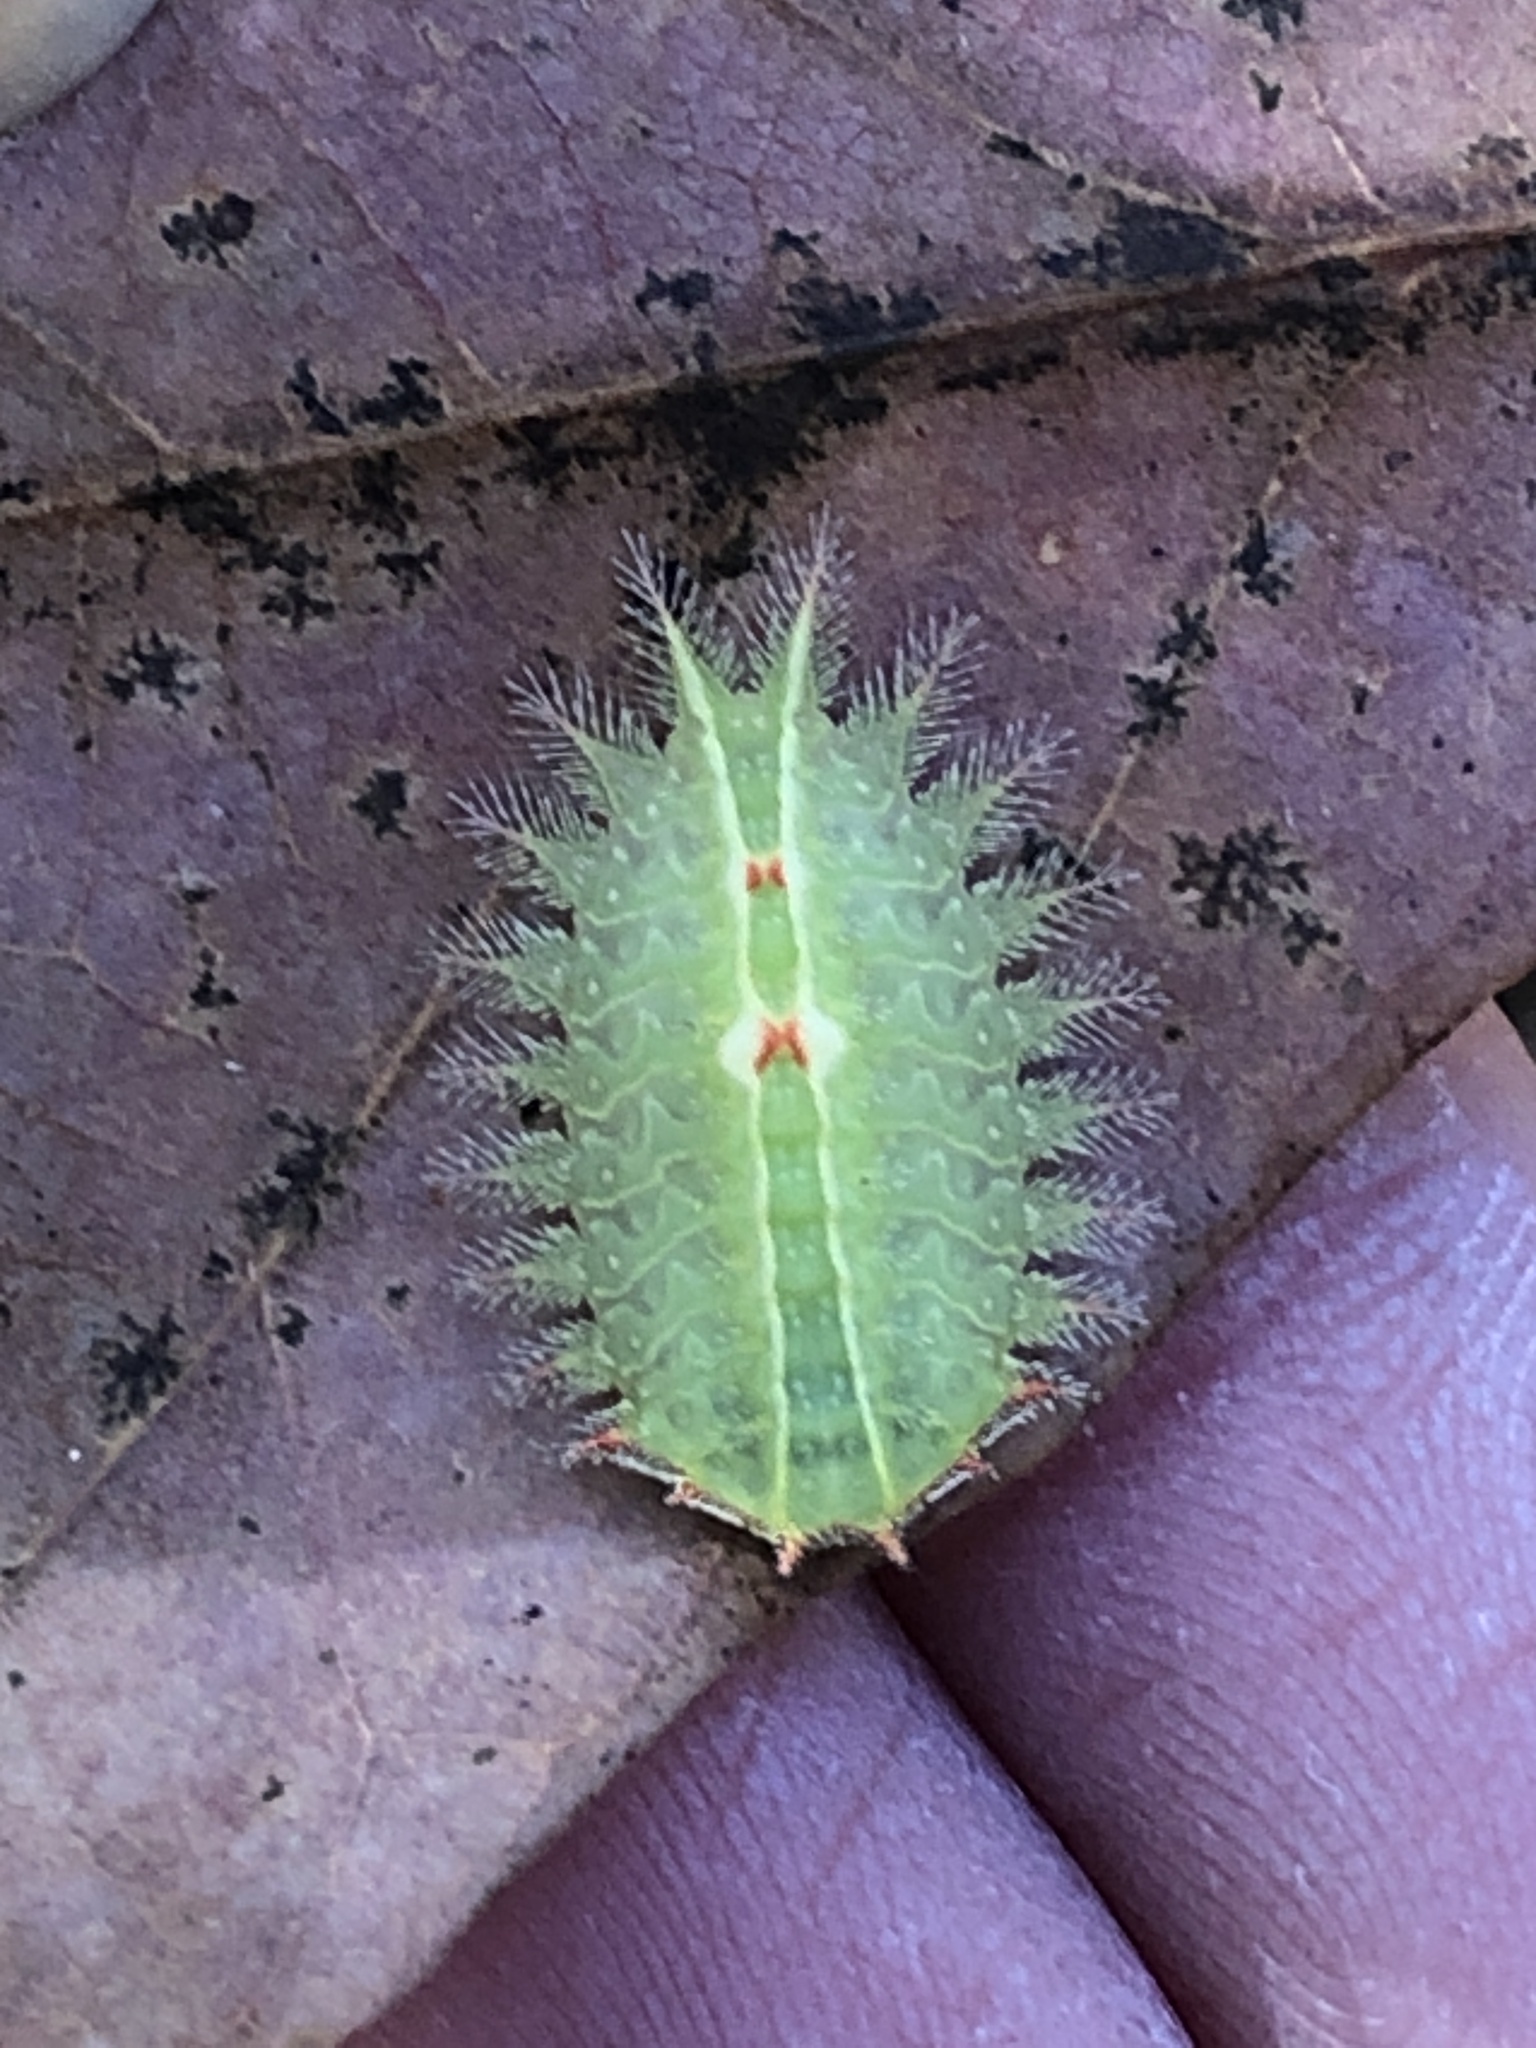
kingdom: Animalia
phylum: Arthropoda
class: Insecta
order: Lepidoptera
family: Limacodidae
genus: Isa
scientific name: Isa textula
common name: Crowned slug moth
